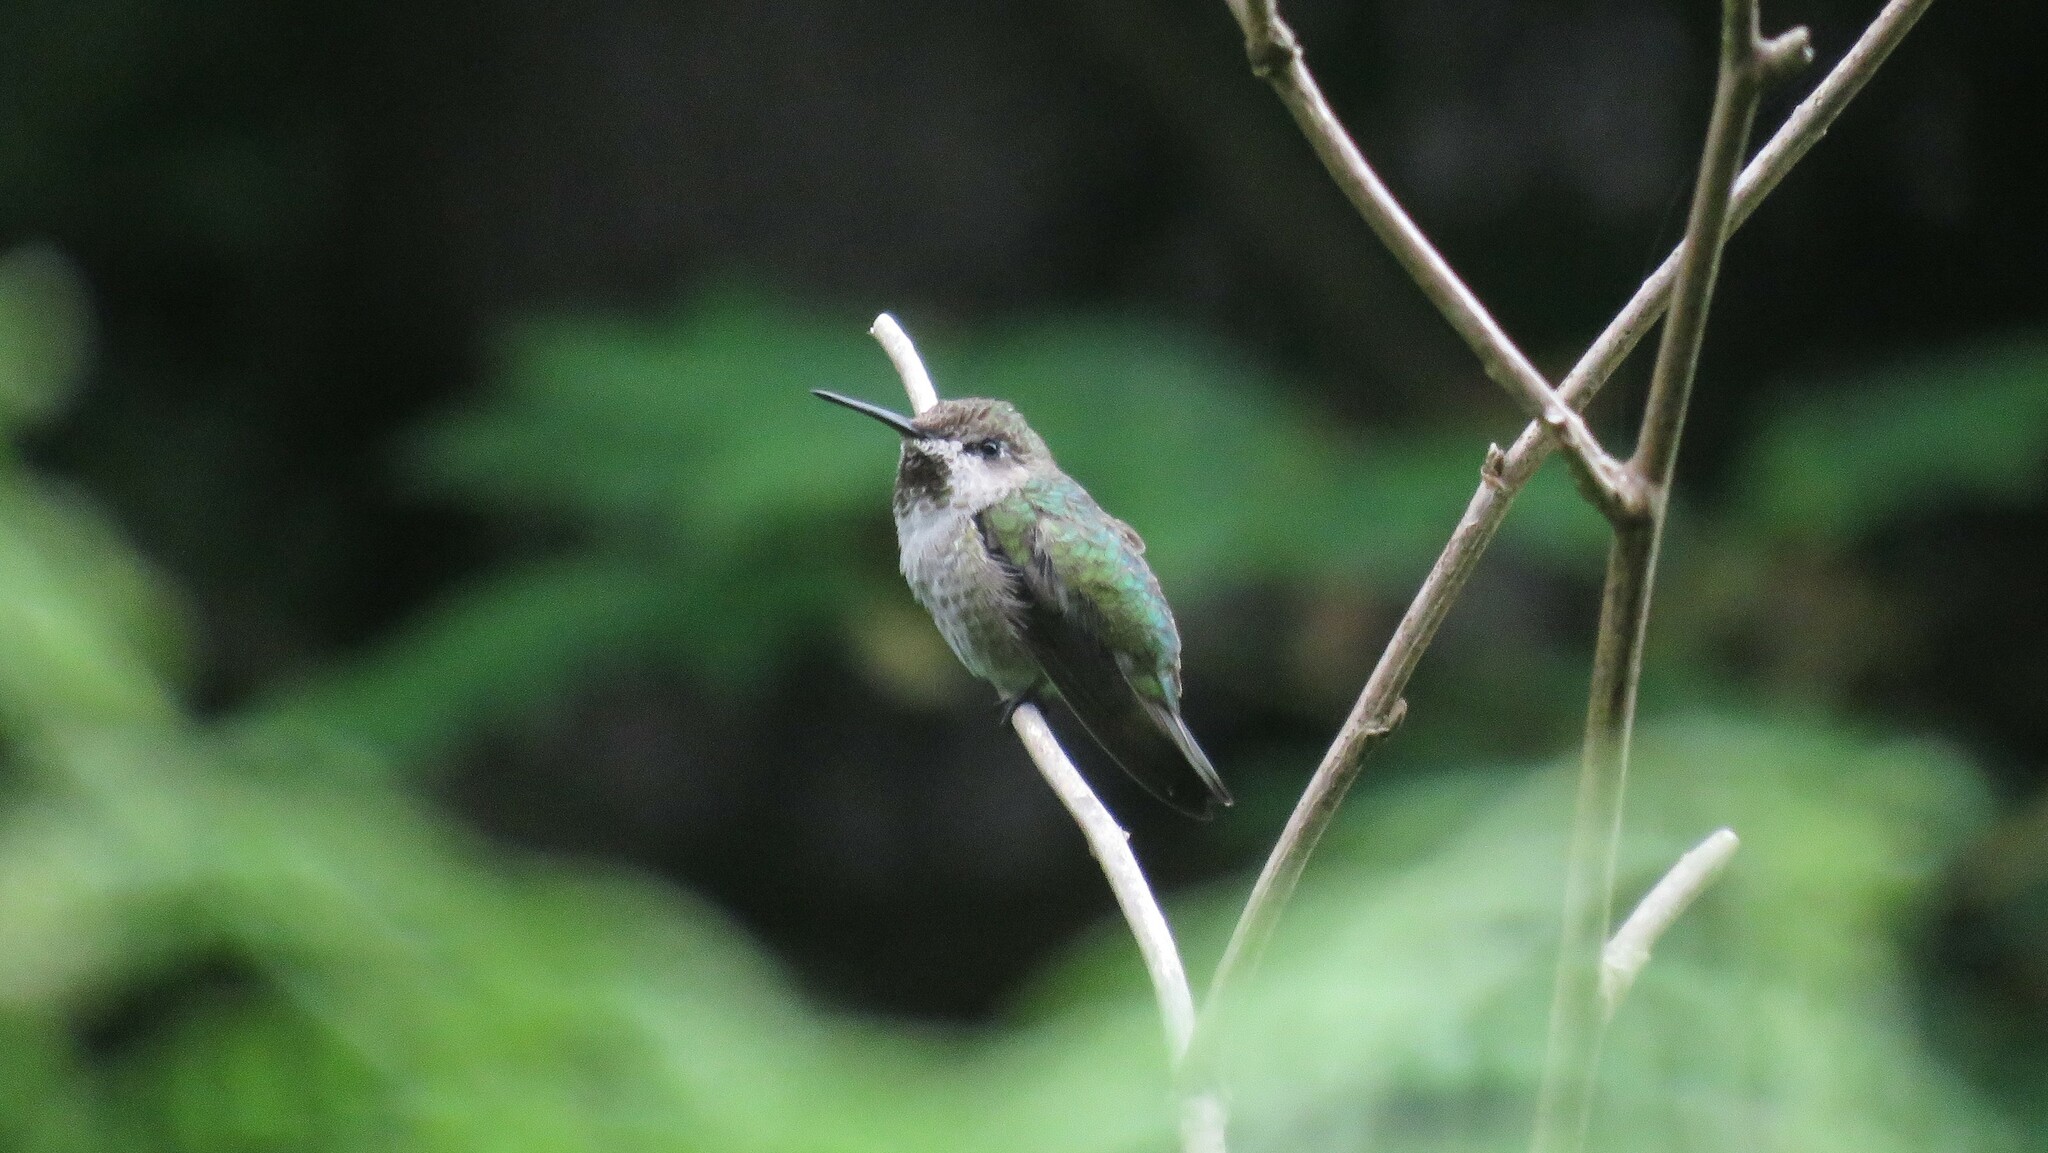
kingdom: Animalia
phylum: Chordata
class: Aves
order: Apodiformes
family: Trochilidae
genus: Calypte
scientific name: Calypte anna
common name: Anna's hummingbird
